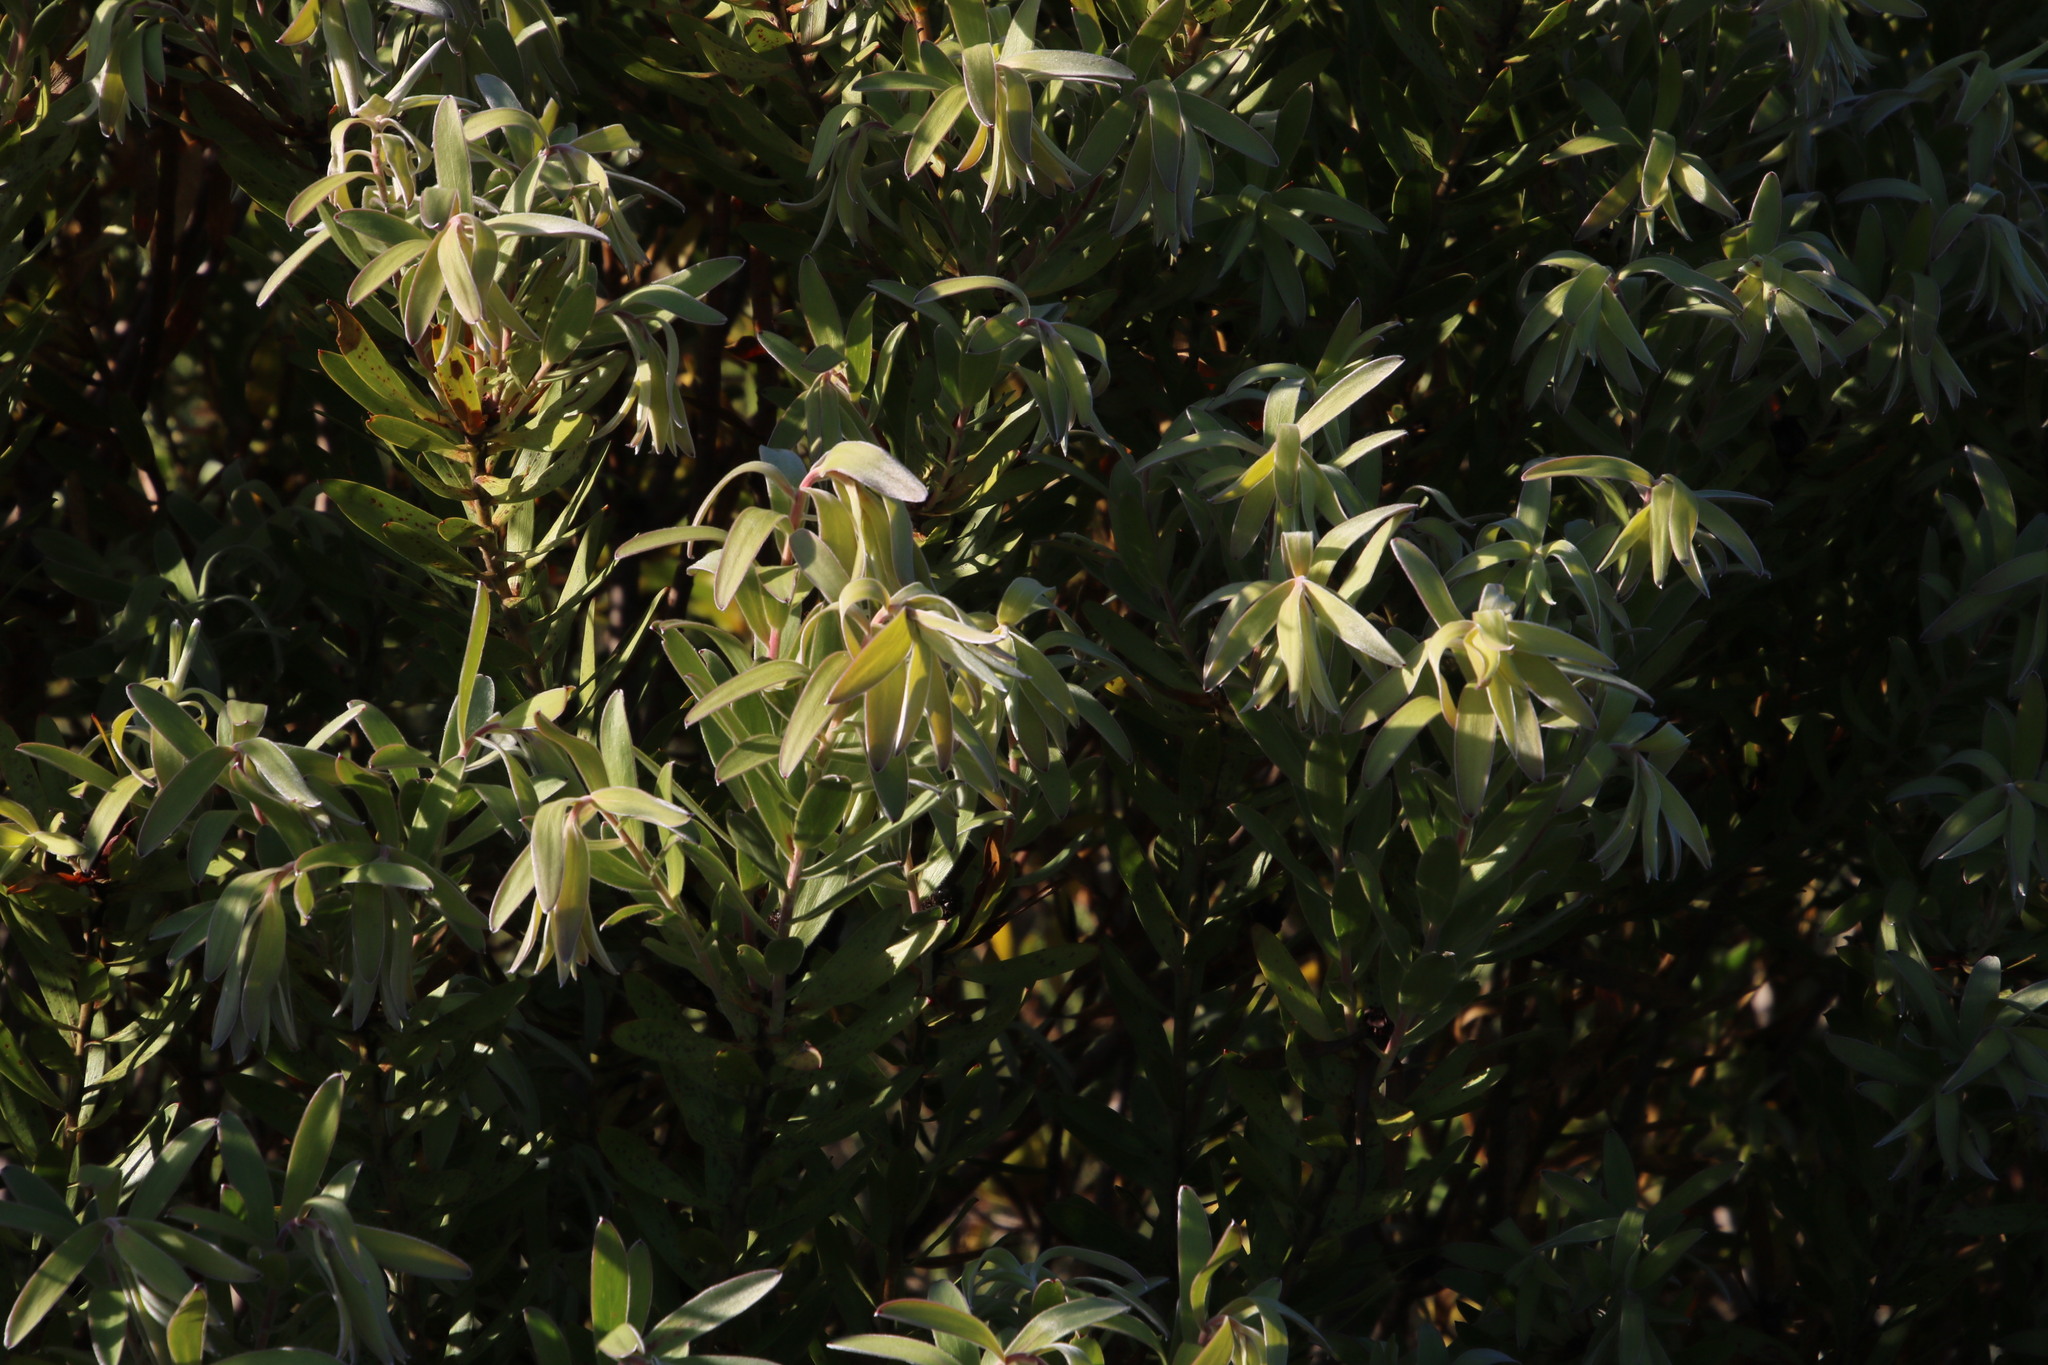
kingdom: Plantae
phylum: Tracheophyta
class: Magnoliopsida
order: Proteales
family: Proteaceae
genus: Leucadendron
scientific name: Leucadendron laureolum
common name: Golden sunshinebush
